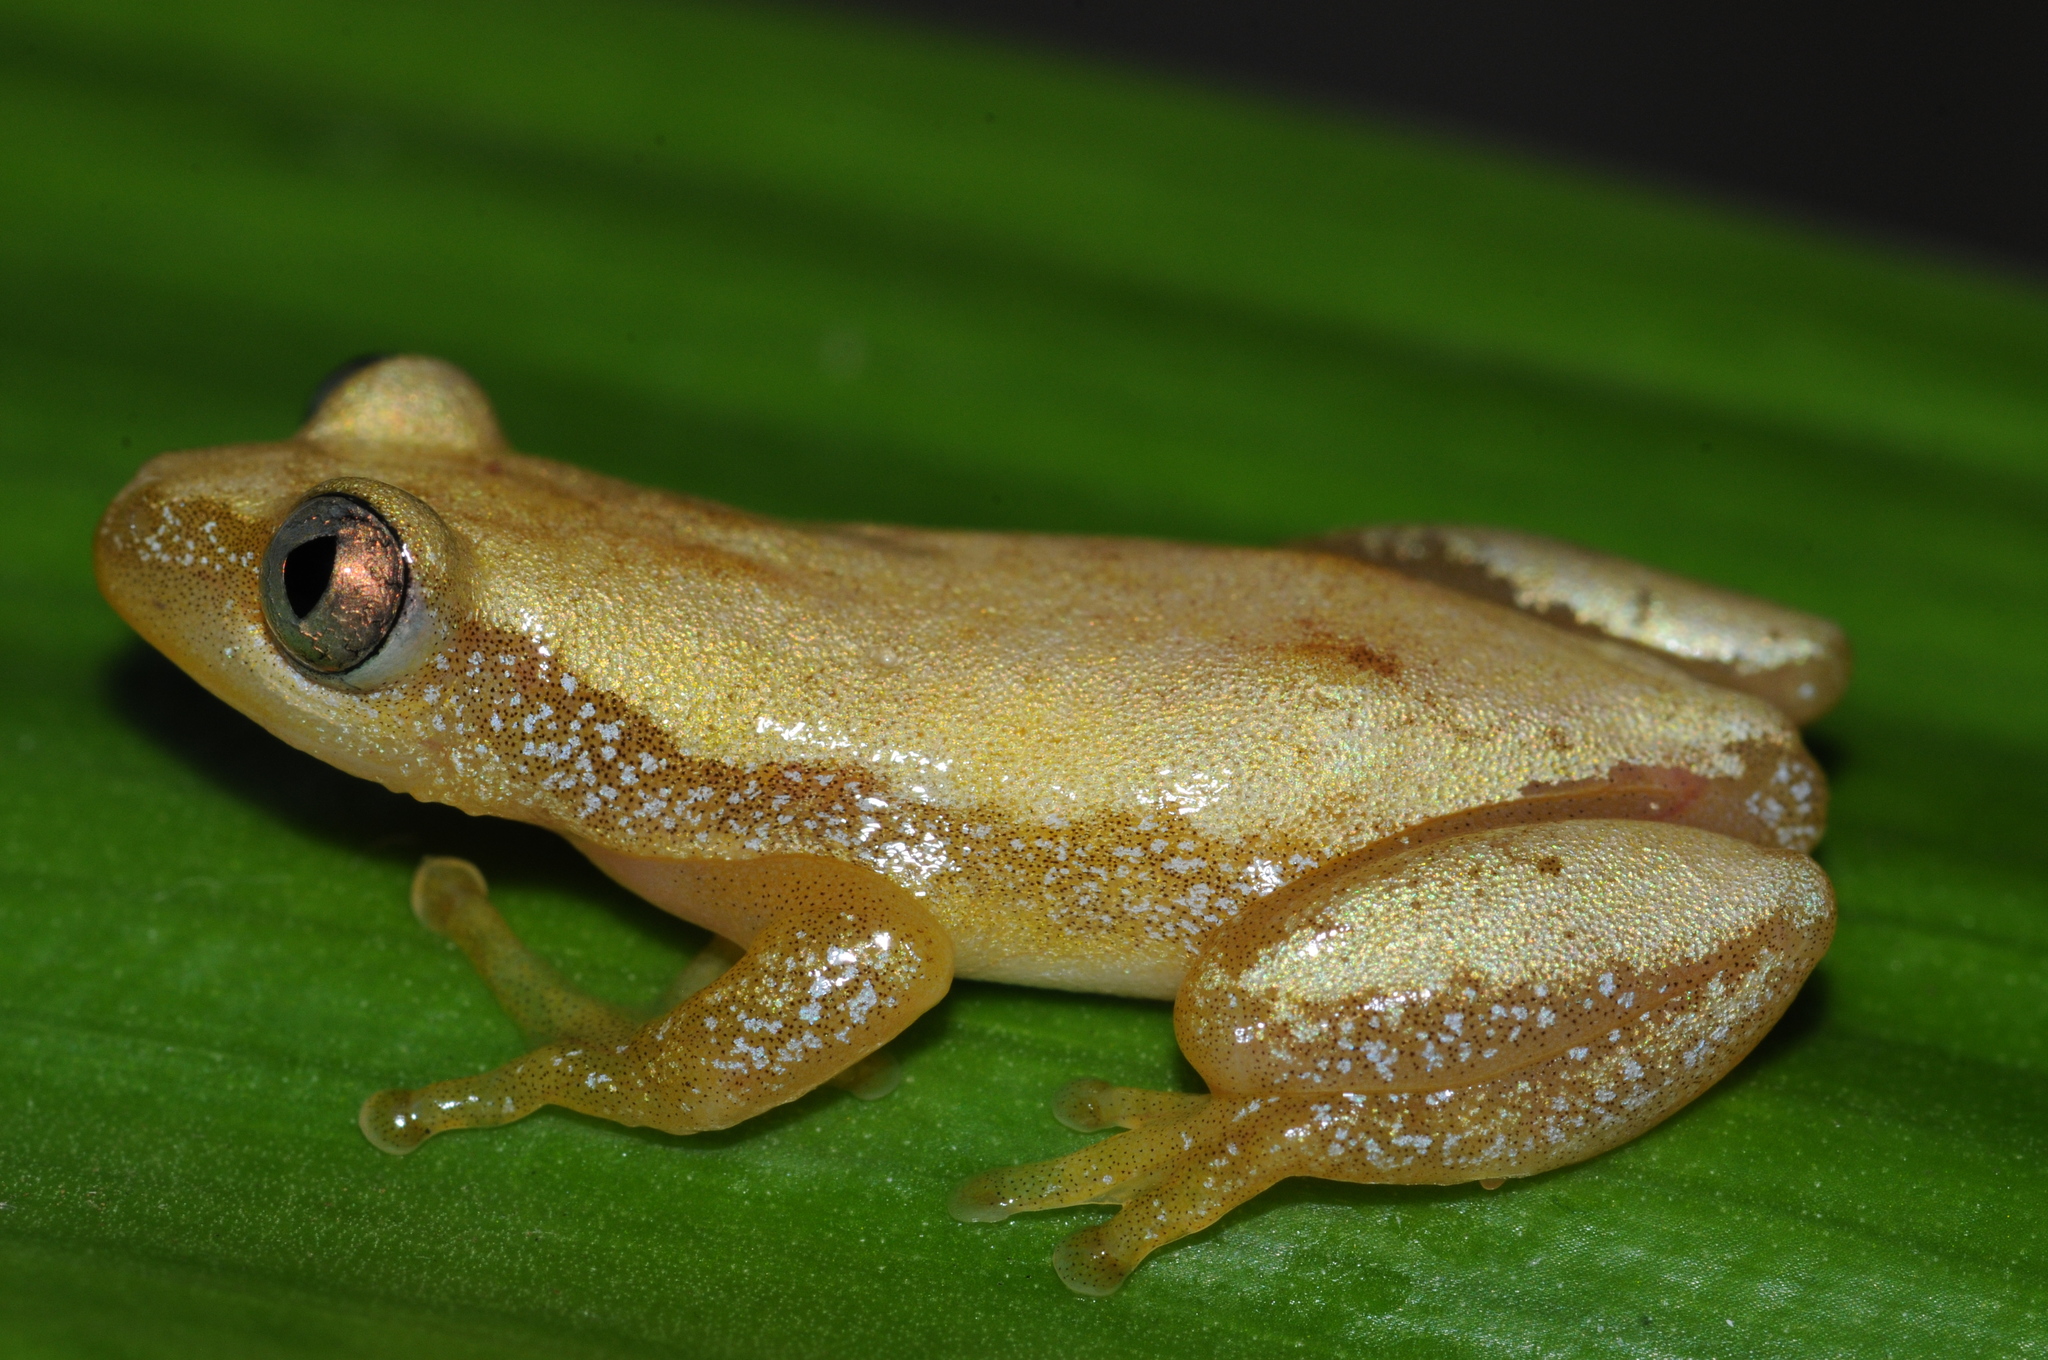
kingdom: Animalia
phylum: Chordata
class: Amphibia
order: Anura
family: Hyperoliidae
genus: Afrixalus
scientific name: Afrixalus brachycnemis
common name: Lesser banana frog
